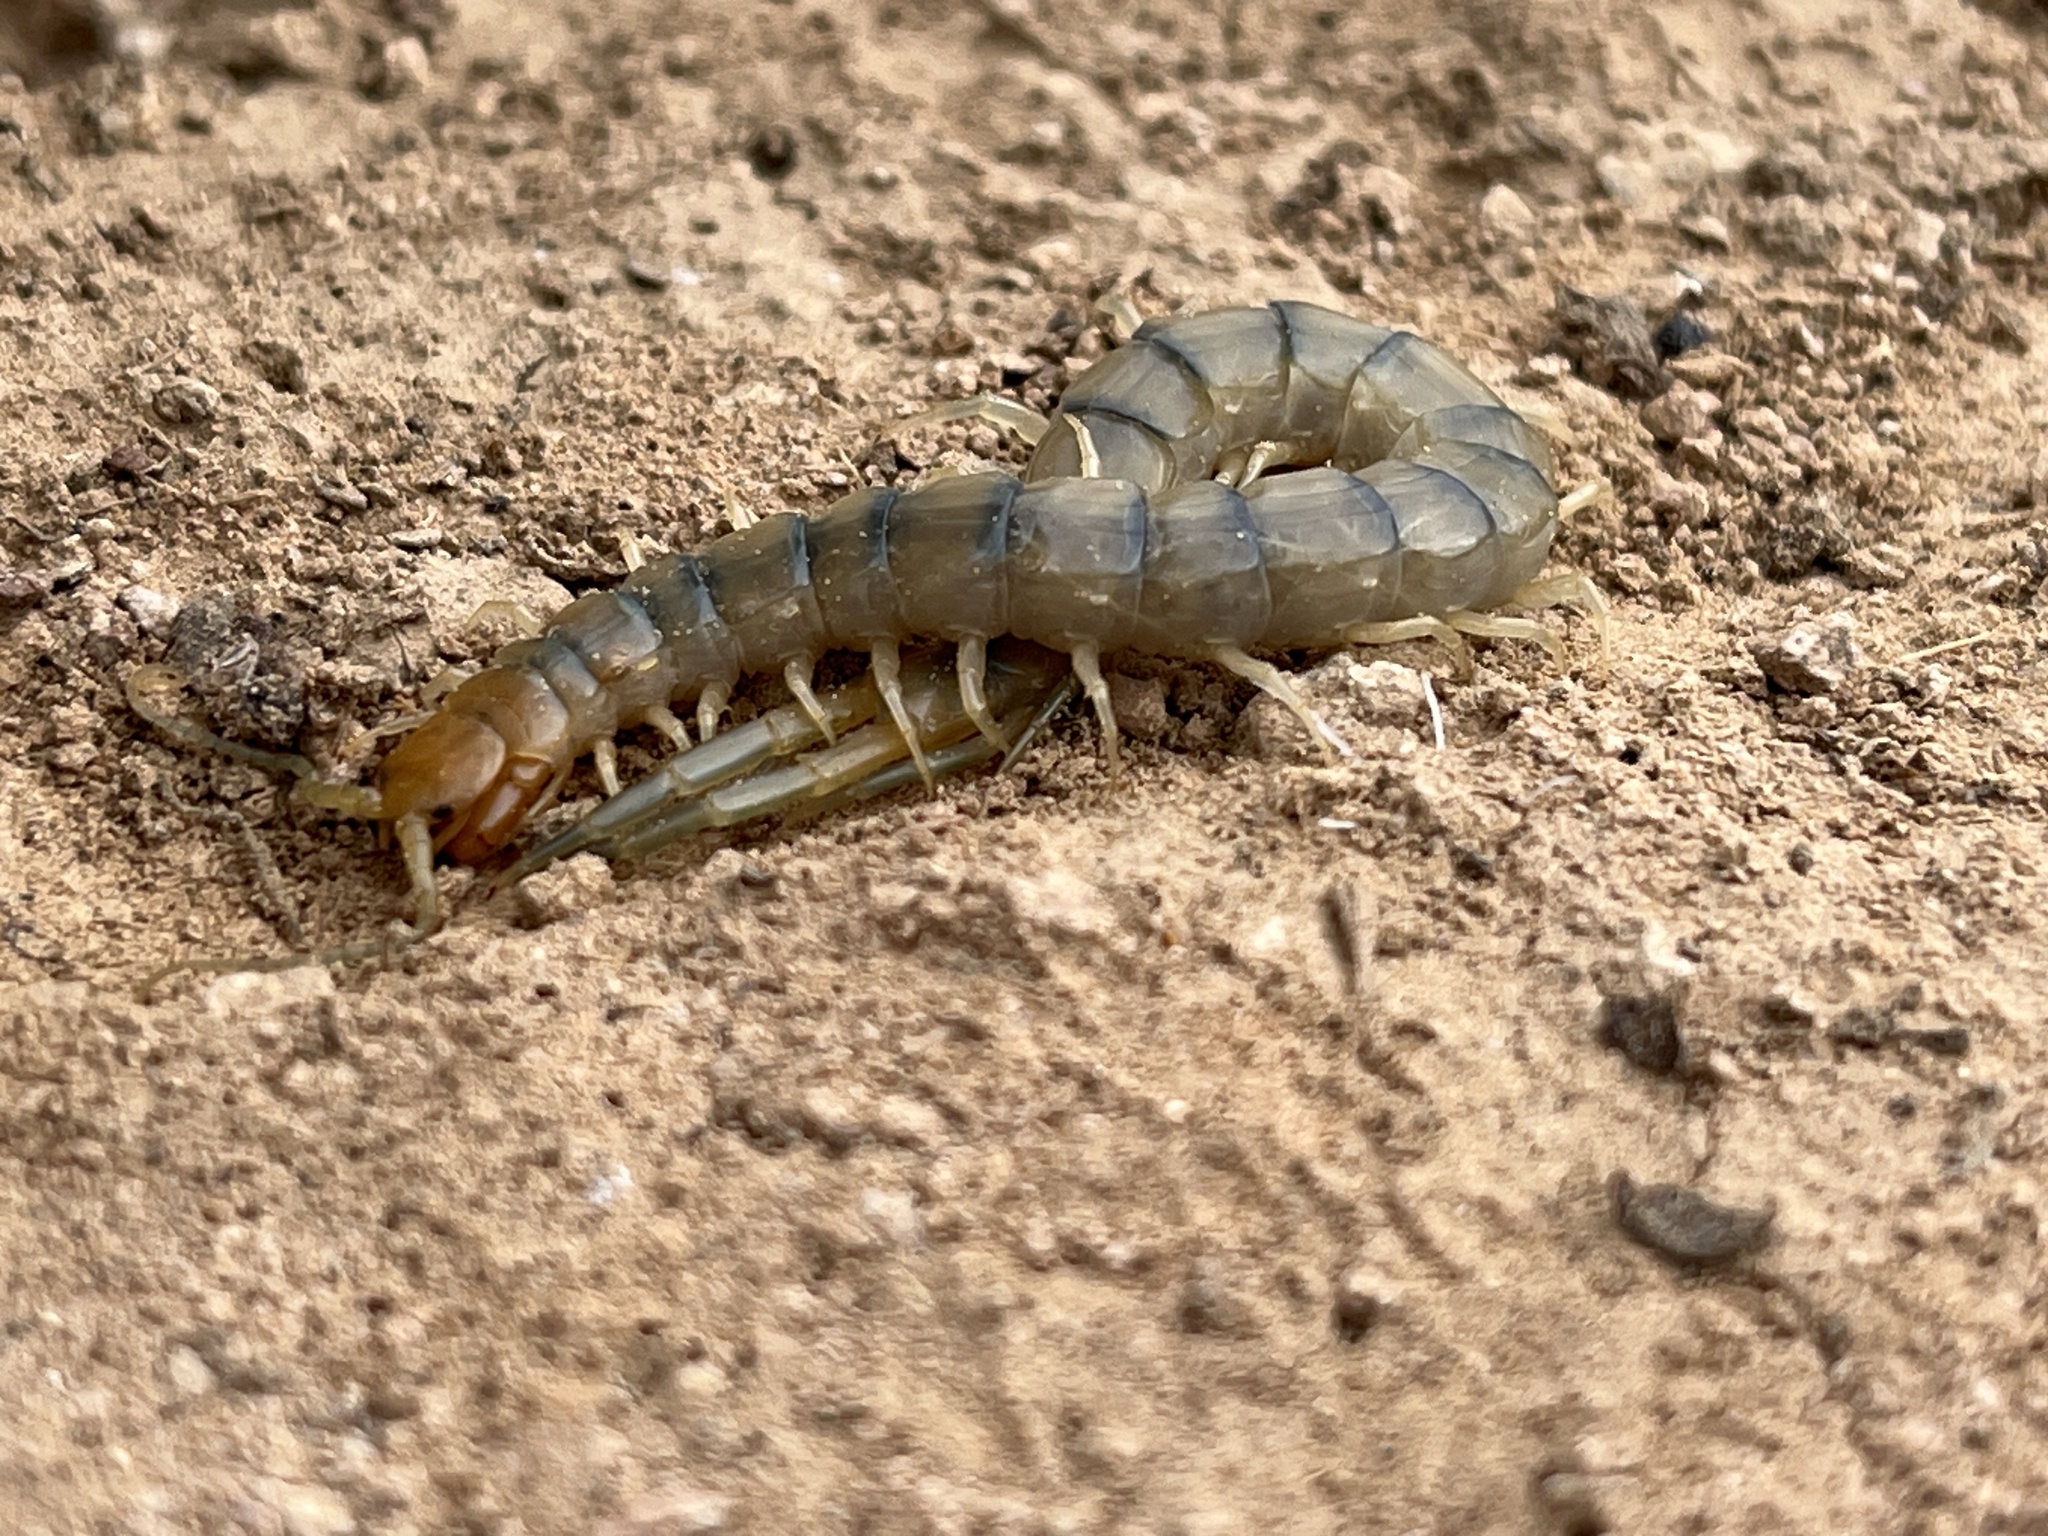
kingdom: Animalia
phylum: Arthropoda
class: Chilopoda
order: Scolopendromorpha
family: Scolopendridae
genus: Scolopendra
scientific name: Scolopendra polymorpha
